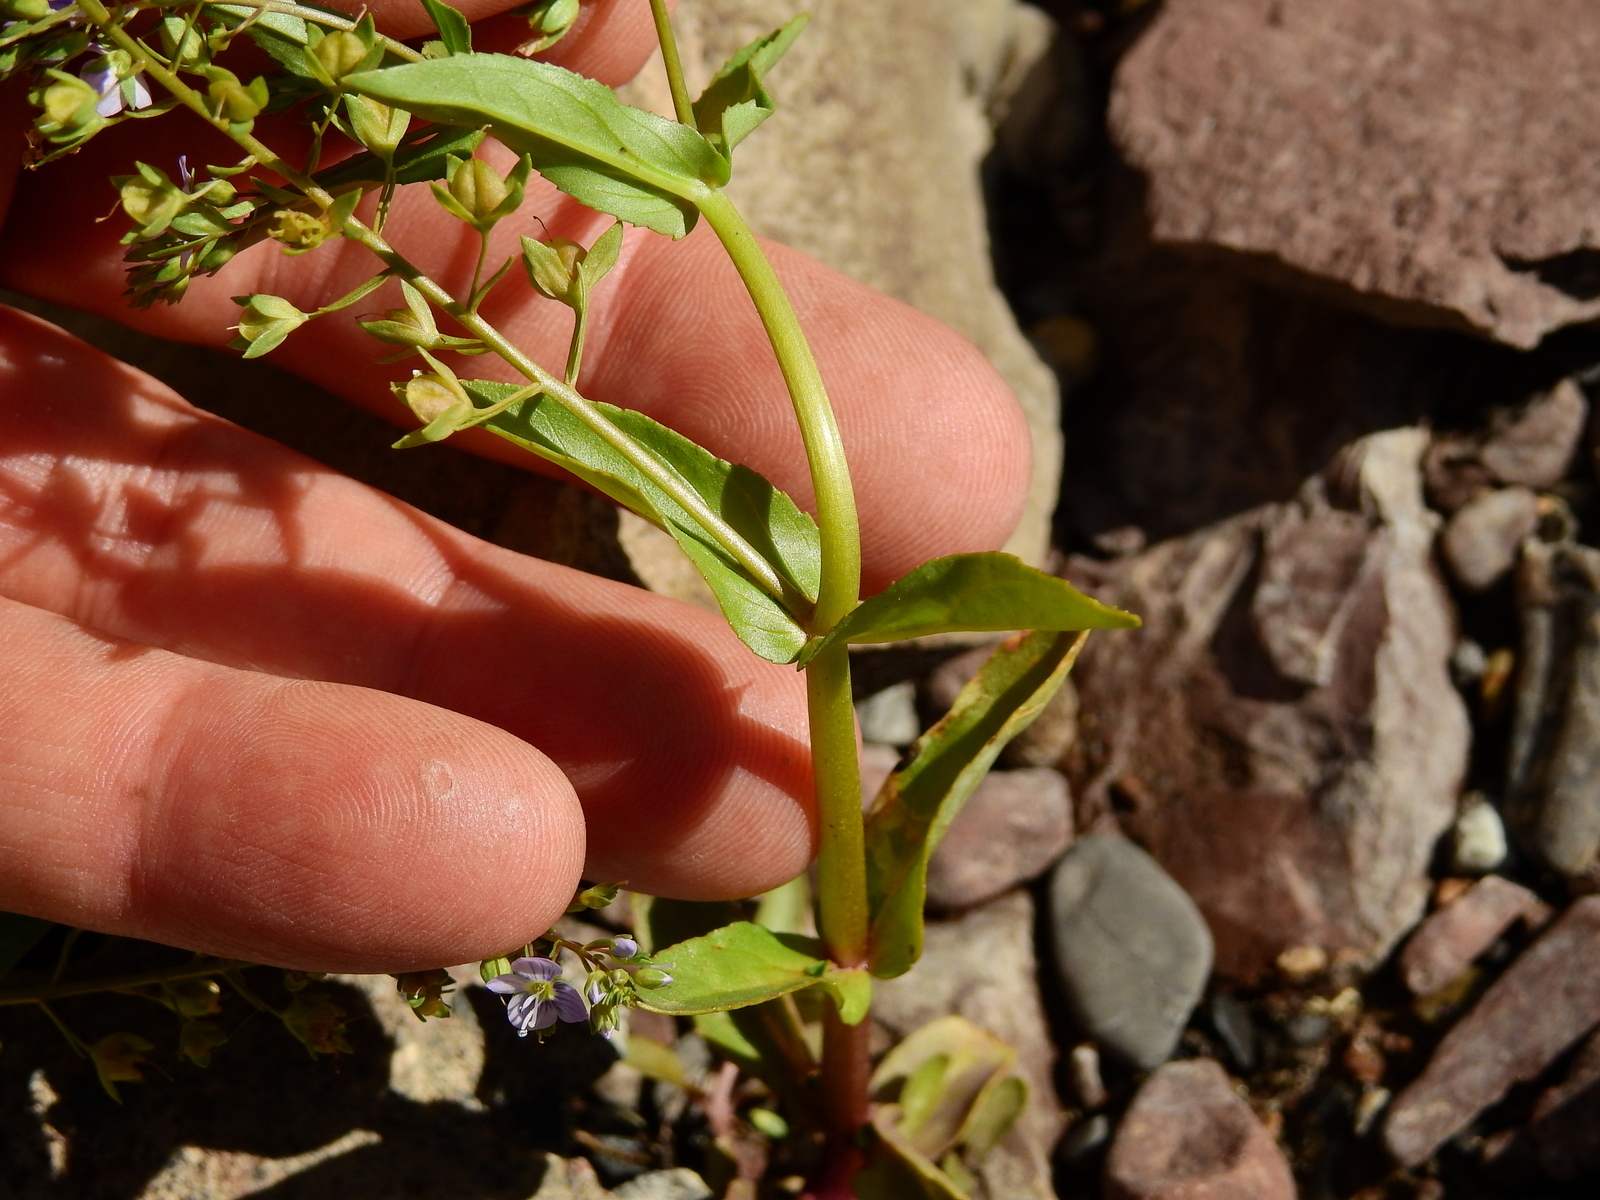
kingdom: Plantae
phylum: Tracheophyta
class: Magnoliopsida
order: Lamiales
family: Plantaginaceae
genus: Veronica
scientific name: Veronica anagallis-aquatica
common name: Water speedwell
